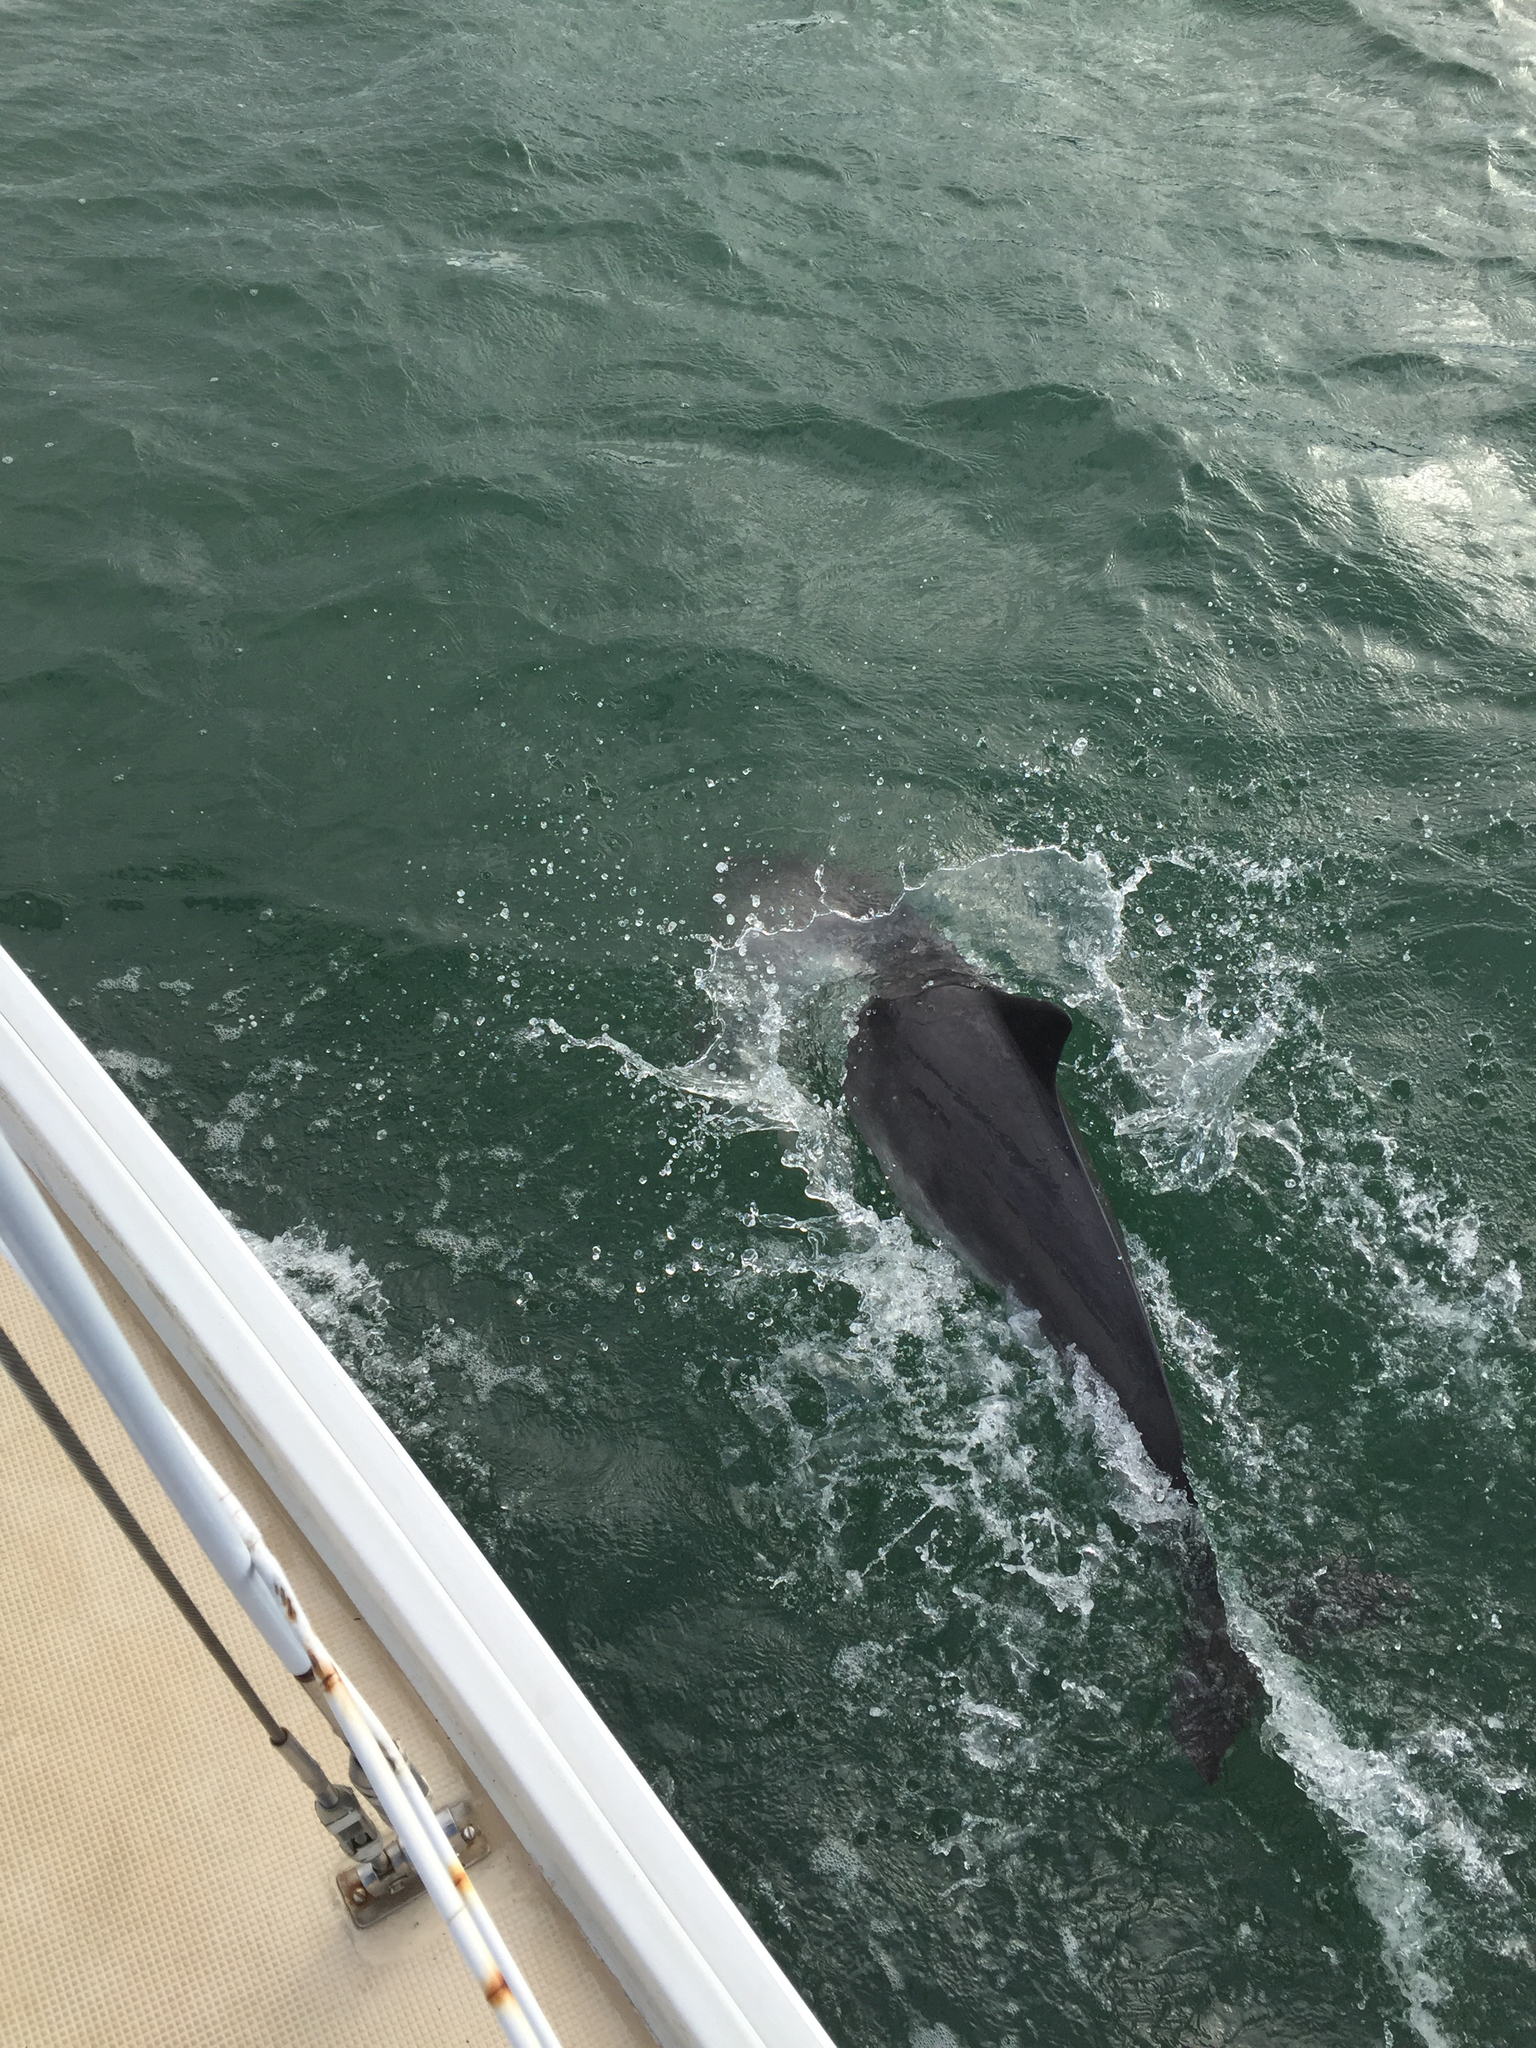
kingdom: Animalia
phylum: Chordata
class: Mammalia
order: Cetacea
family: Phocoenidae
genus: Phocoena
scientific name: Phocoena phocoena
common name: Harbor porpoise
